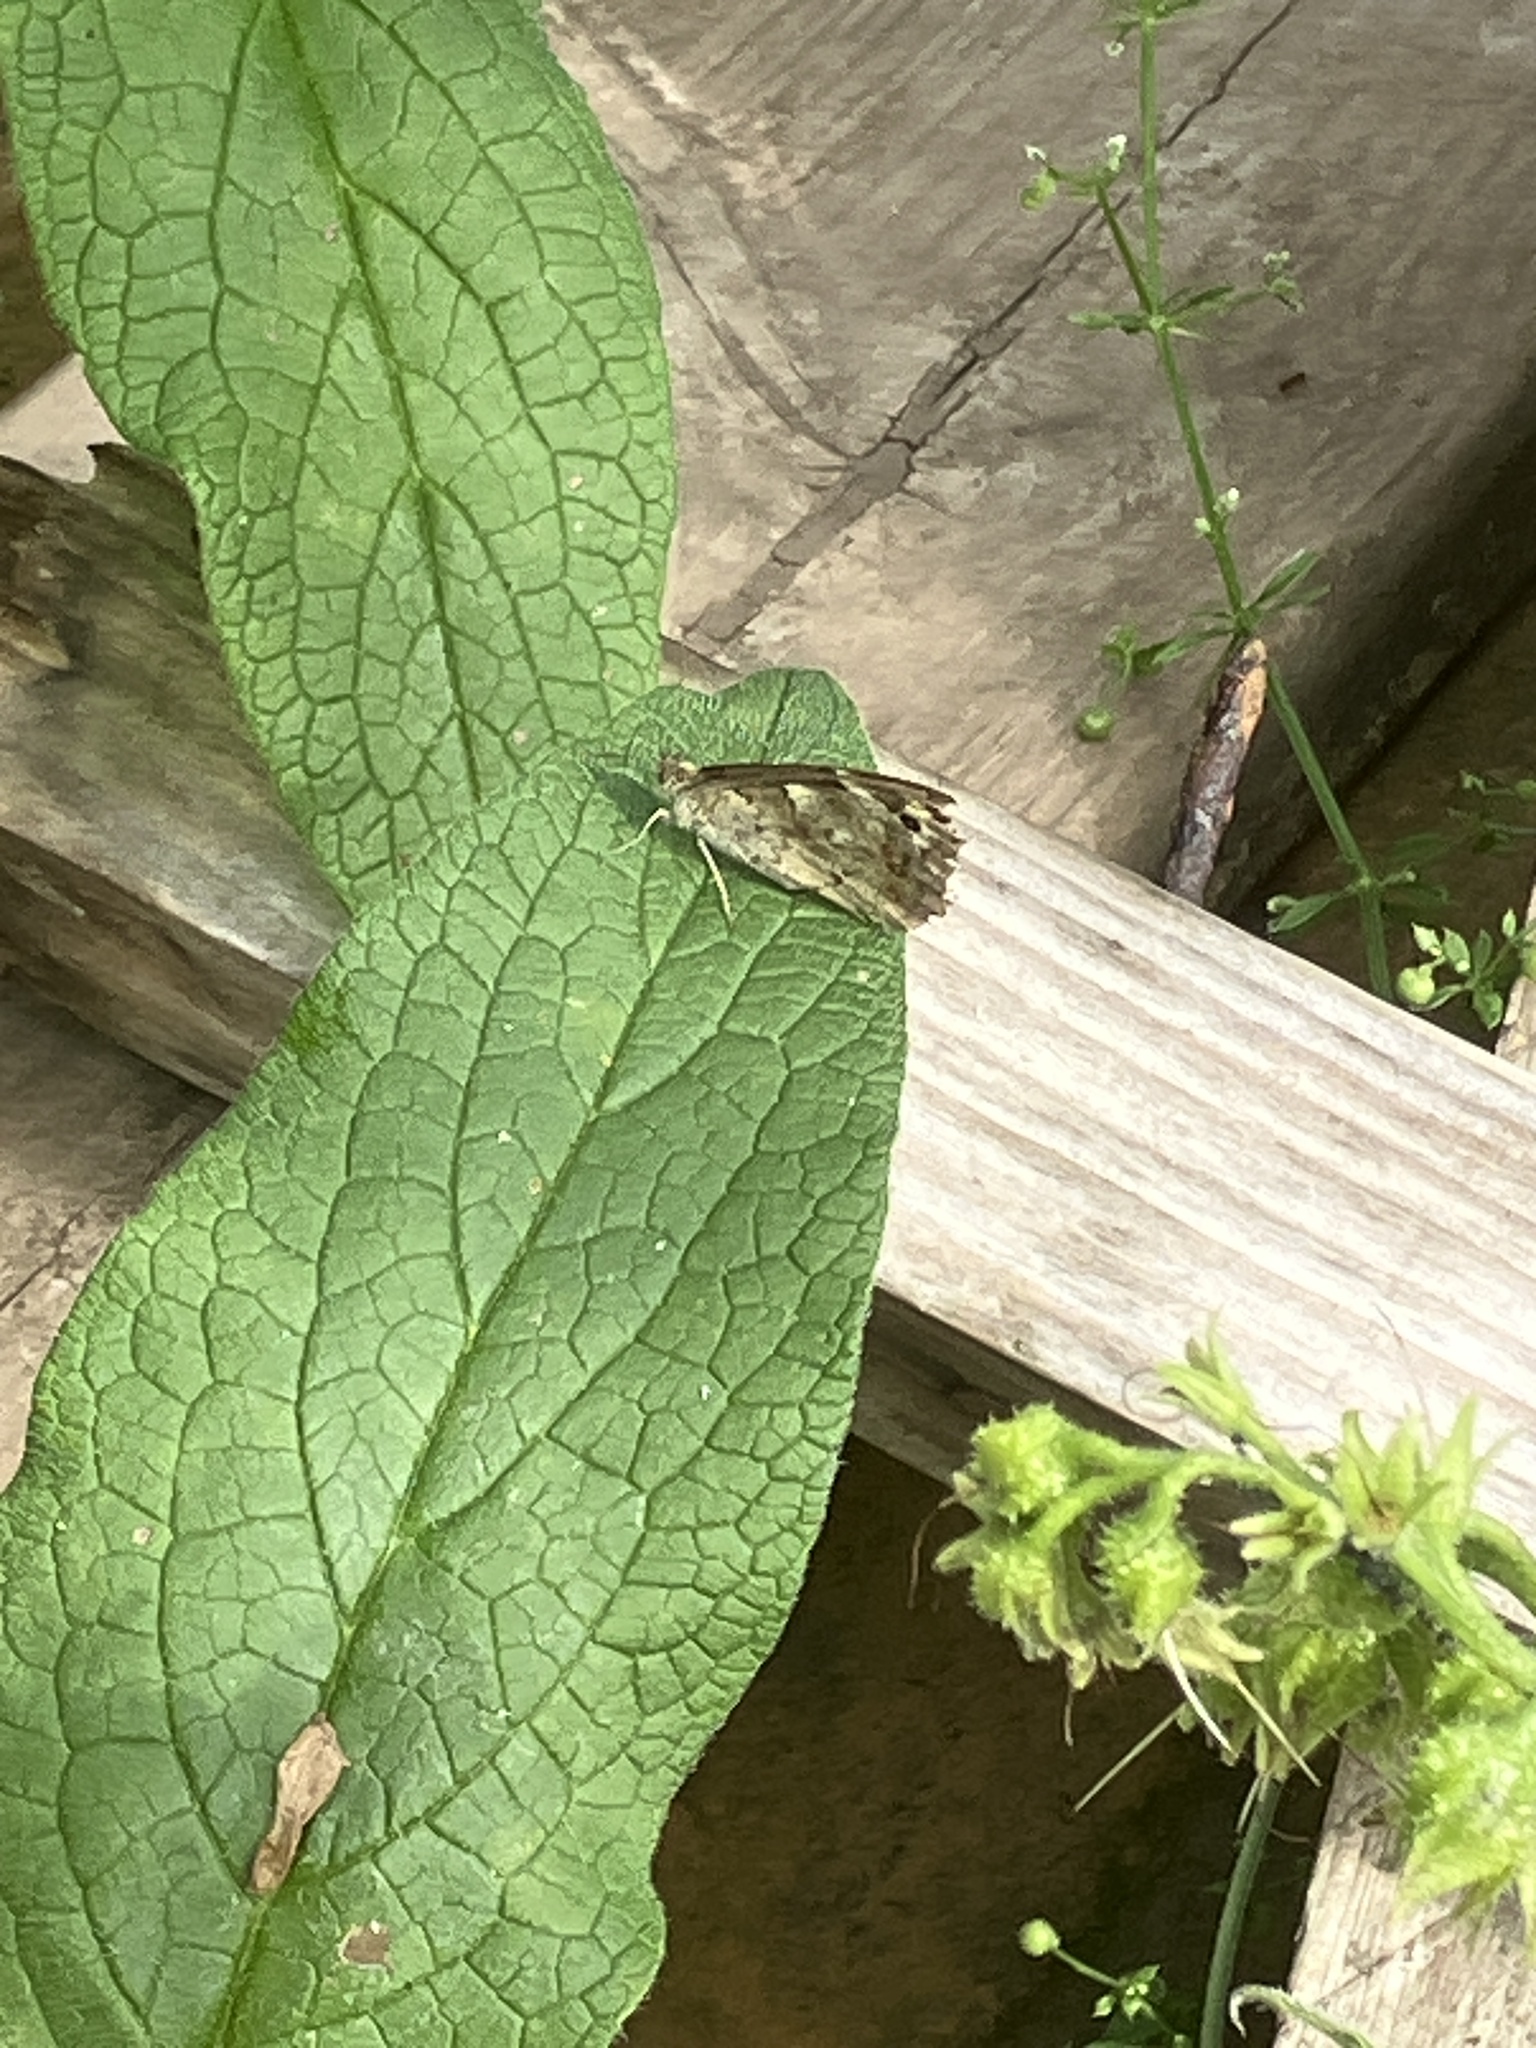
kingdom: Animalia
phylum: Arthropoda
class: Insecta
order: Lepidoptera
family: Nymphalidae
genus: Pararge
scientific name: Pararge aegeria
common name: Speckled wood
